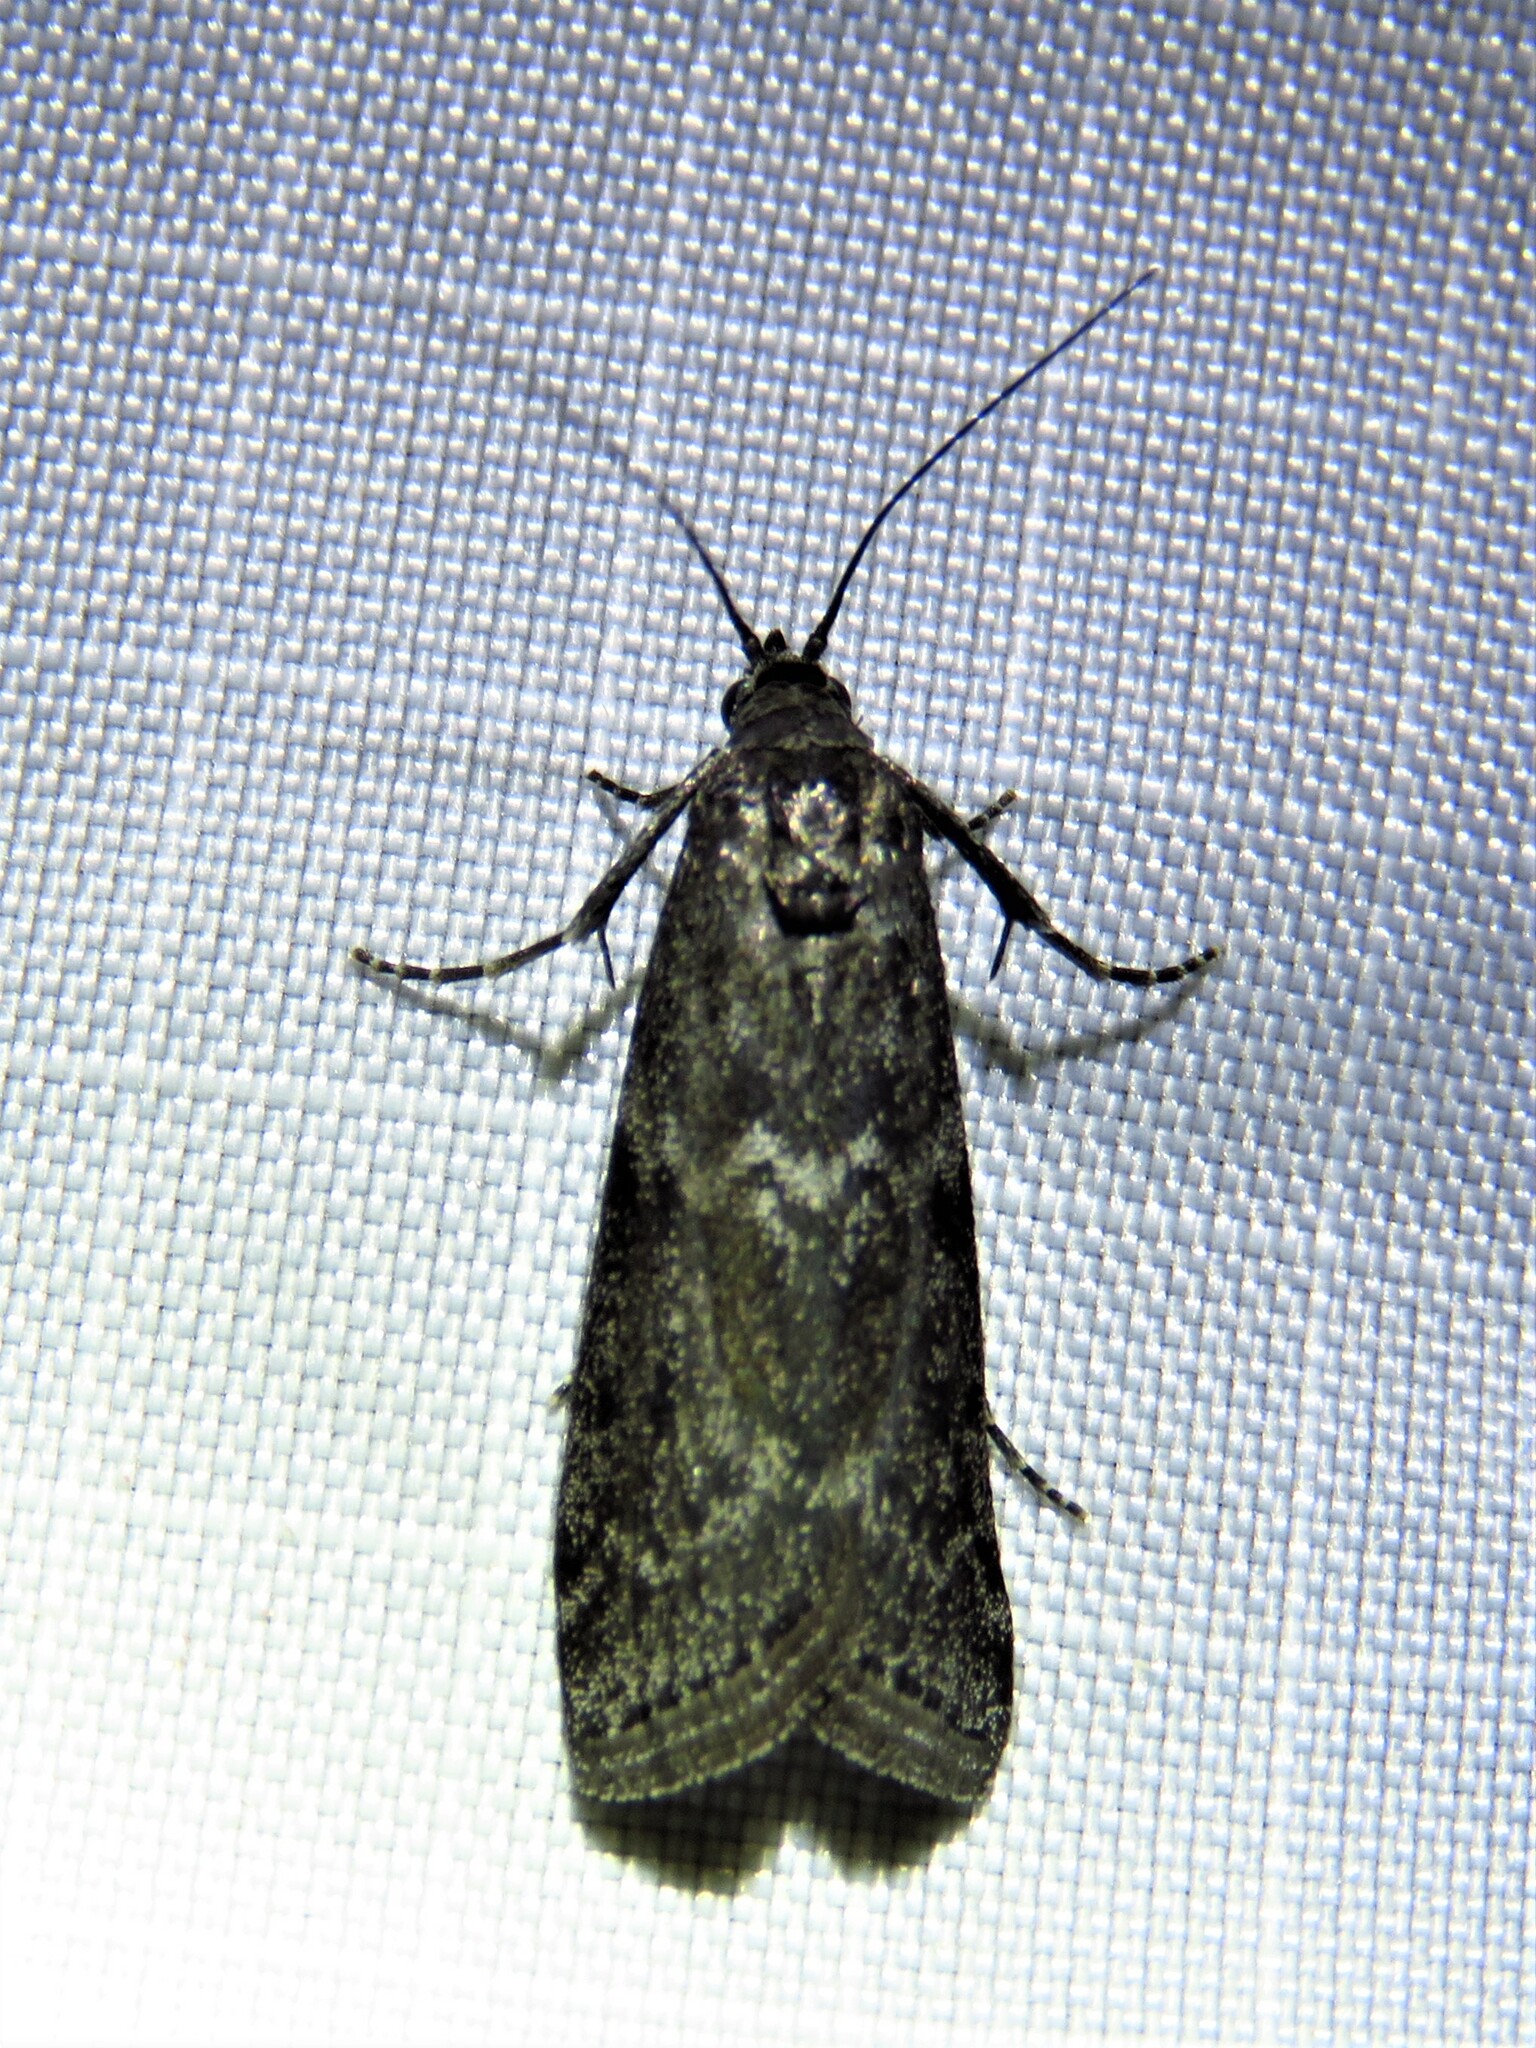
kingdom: Animalia
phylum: Arthropoda
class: Insecta
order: Lepidoptera
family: Pyralidae
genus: Pyla
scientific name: Pyla fusca
